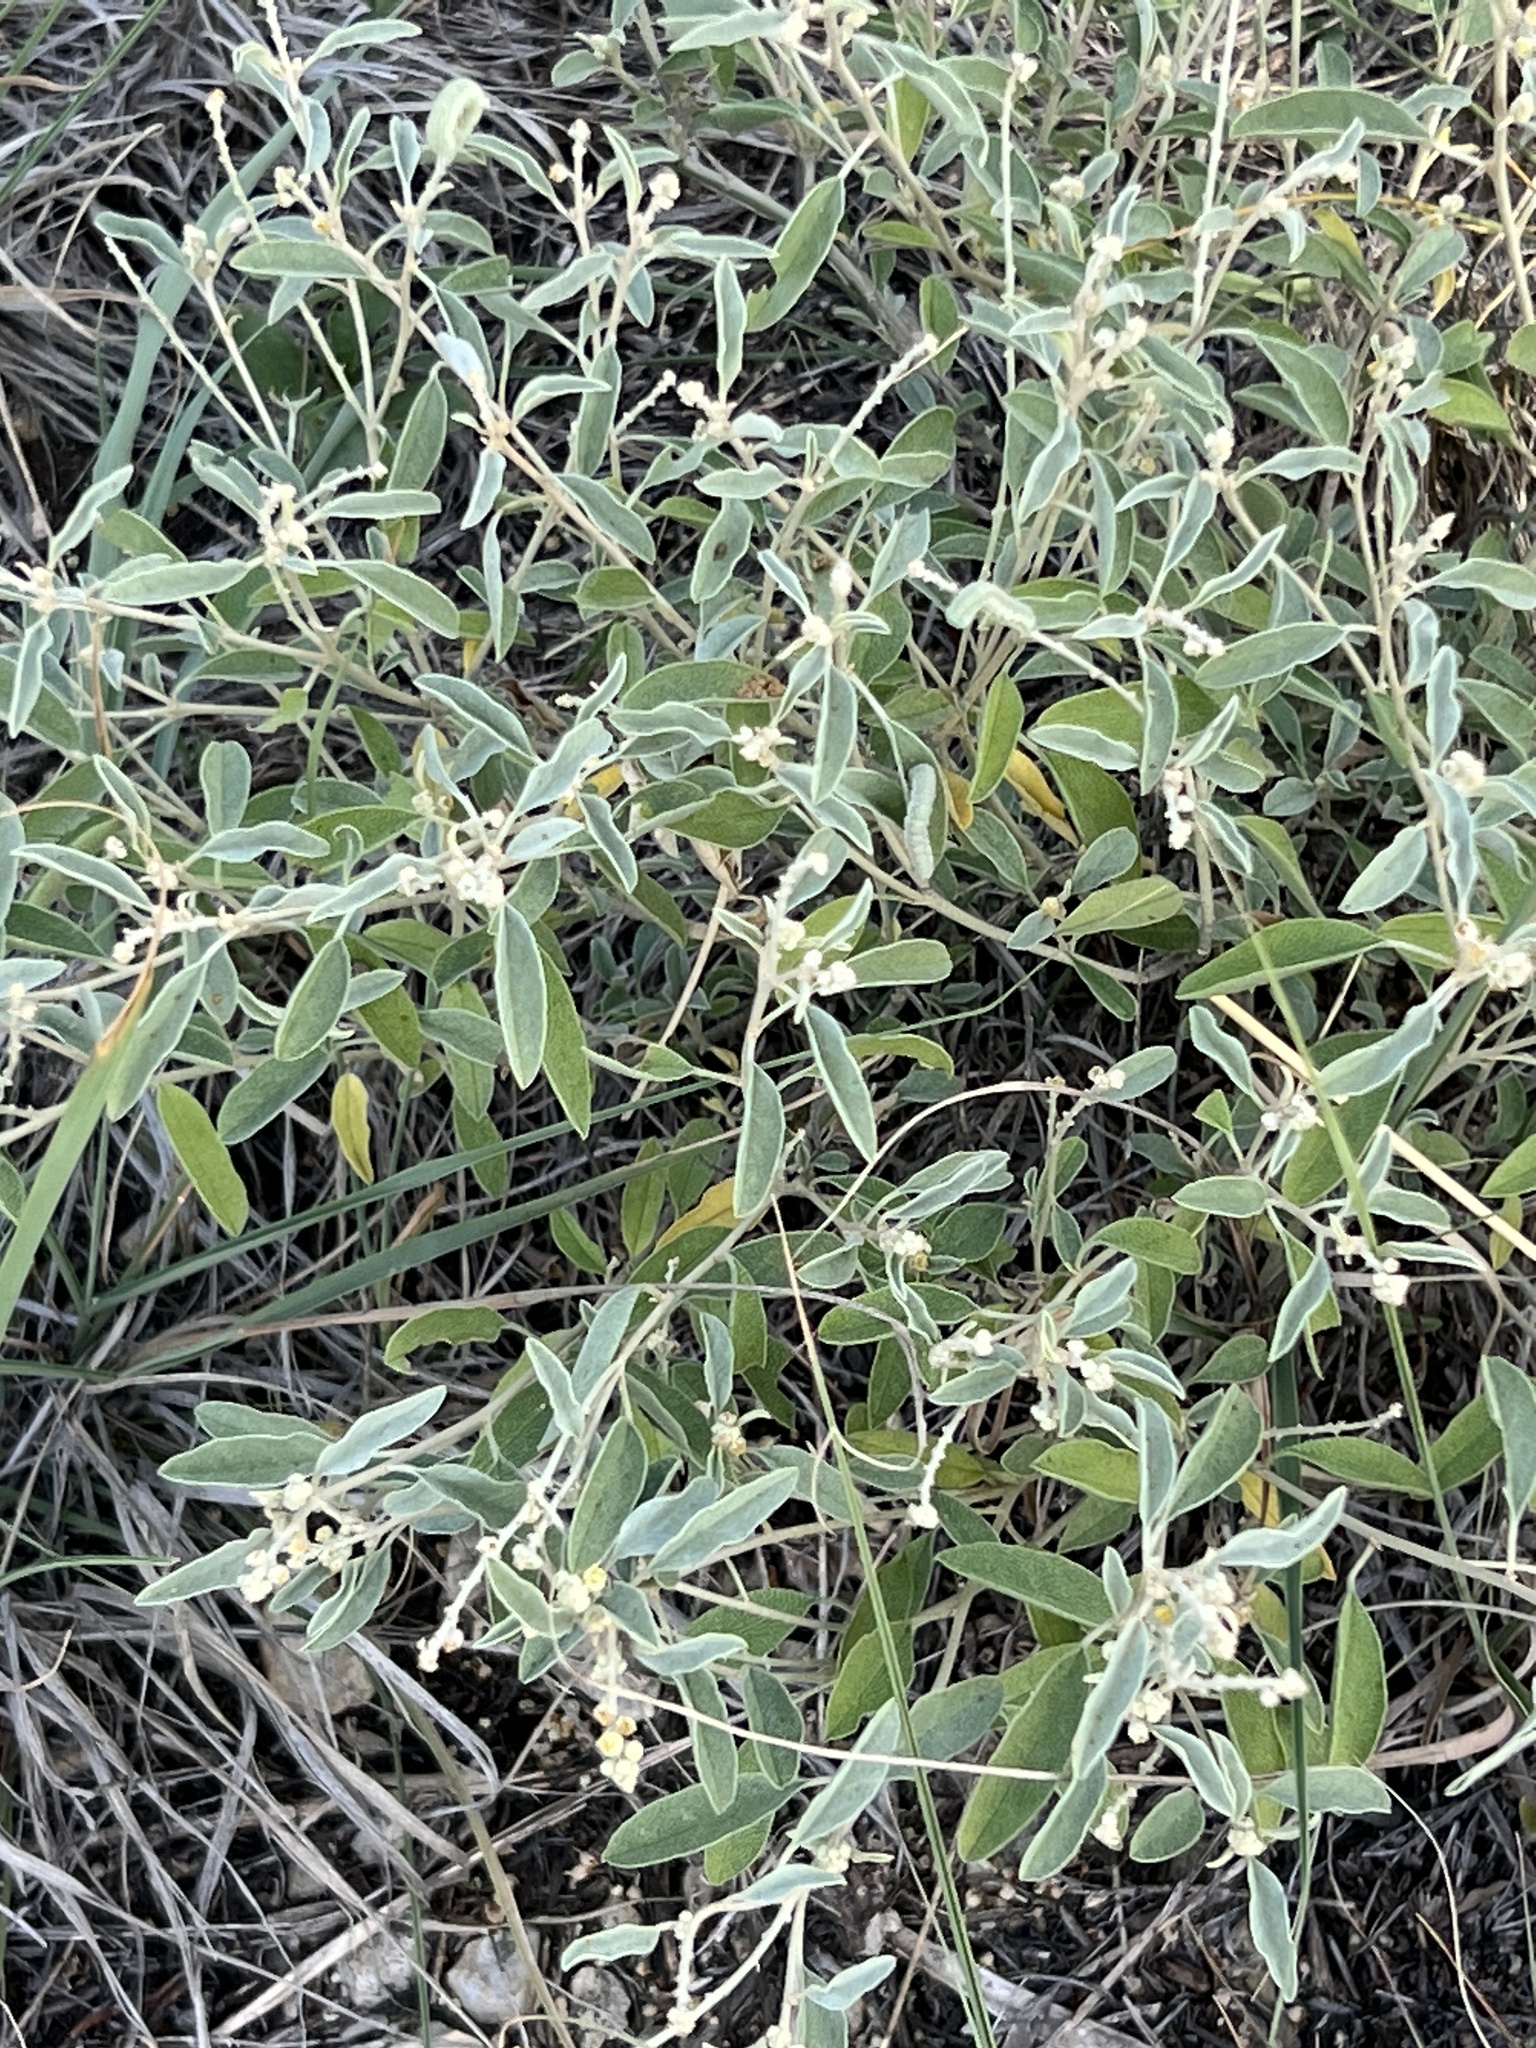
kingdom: Plantae
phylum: Tracheophyta
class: Magnoliopsida
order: Malpighiales
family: Euphorbiaceae
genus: Croton
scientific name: Croton dioicus
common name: Grassland croton
